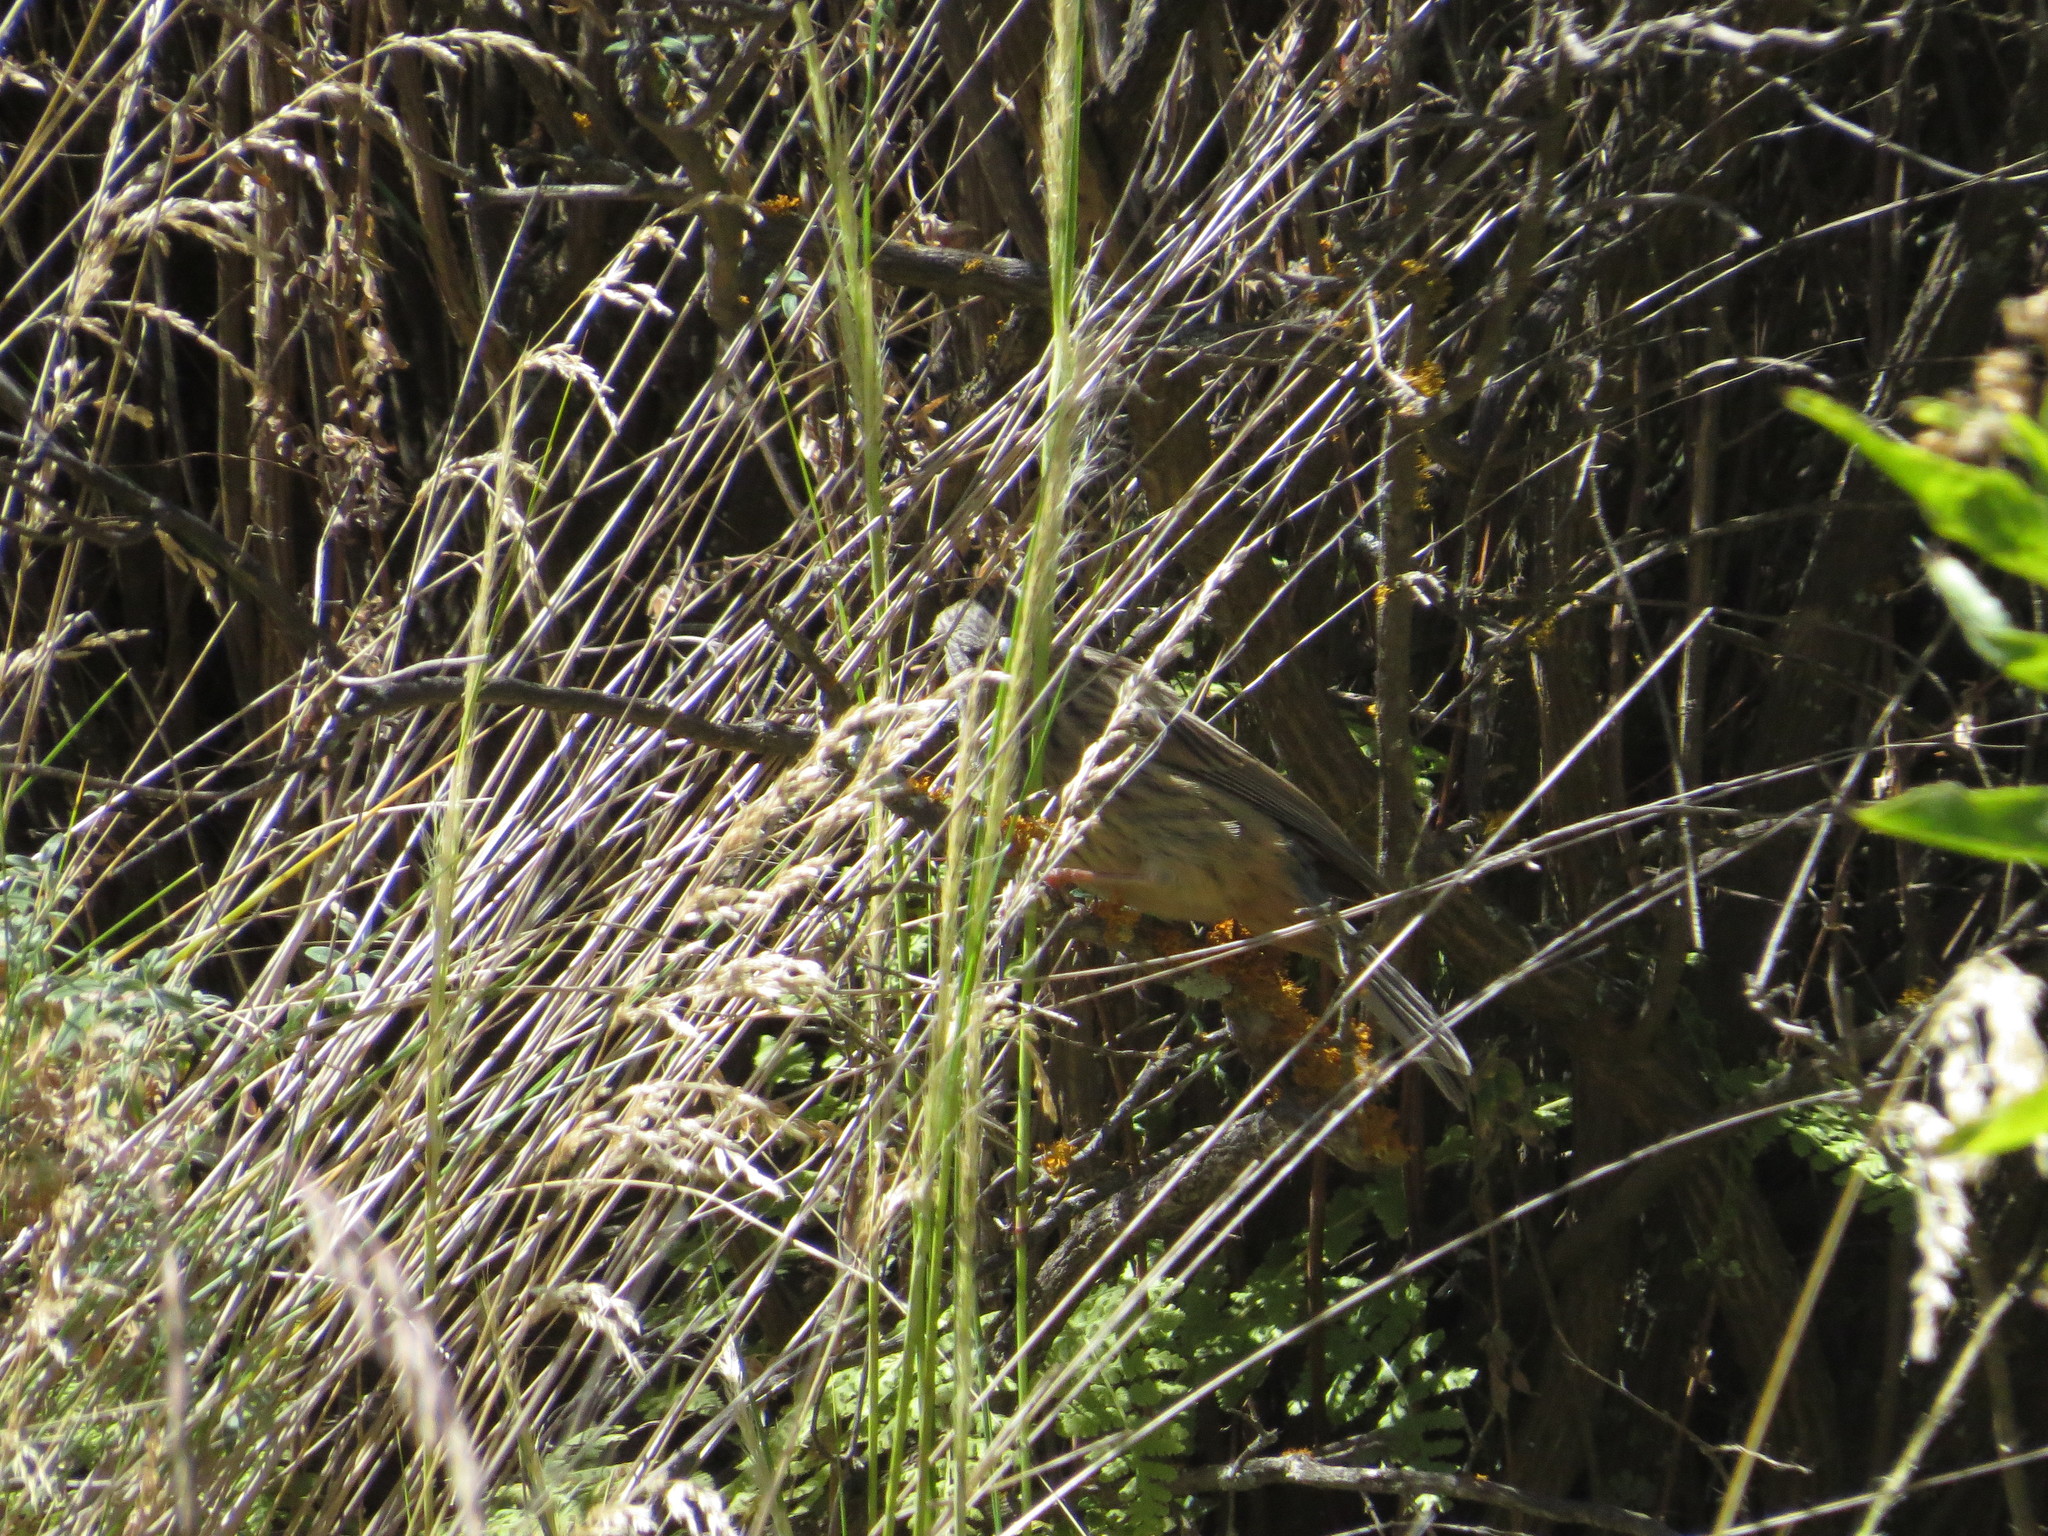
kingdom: Animalia
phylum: Chordata
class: Aves
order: Passeriformes
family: Thraupidae
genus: Catamenia
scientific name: Catamenia analis
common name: Band-tailed seedeater
